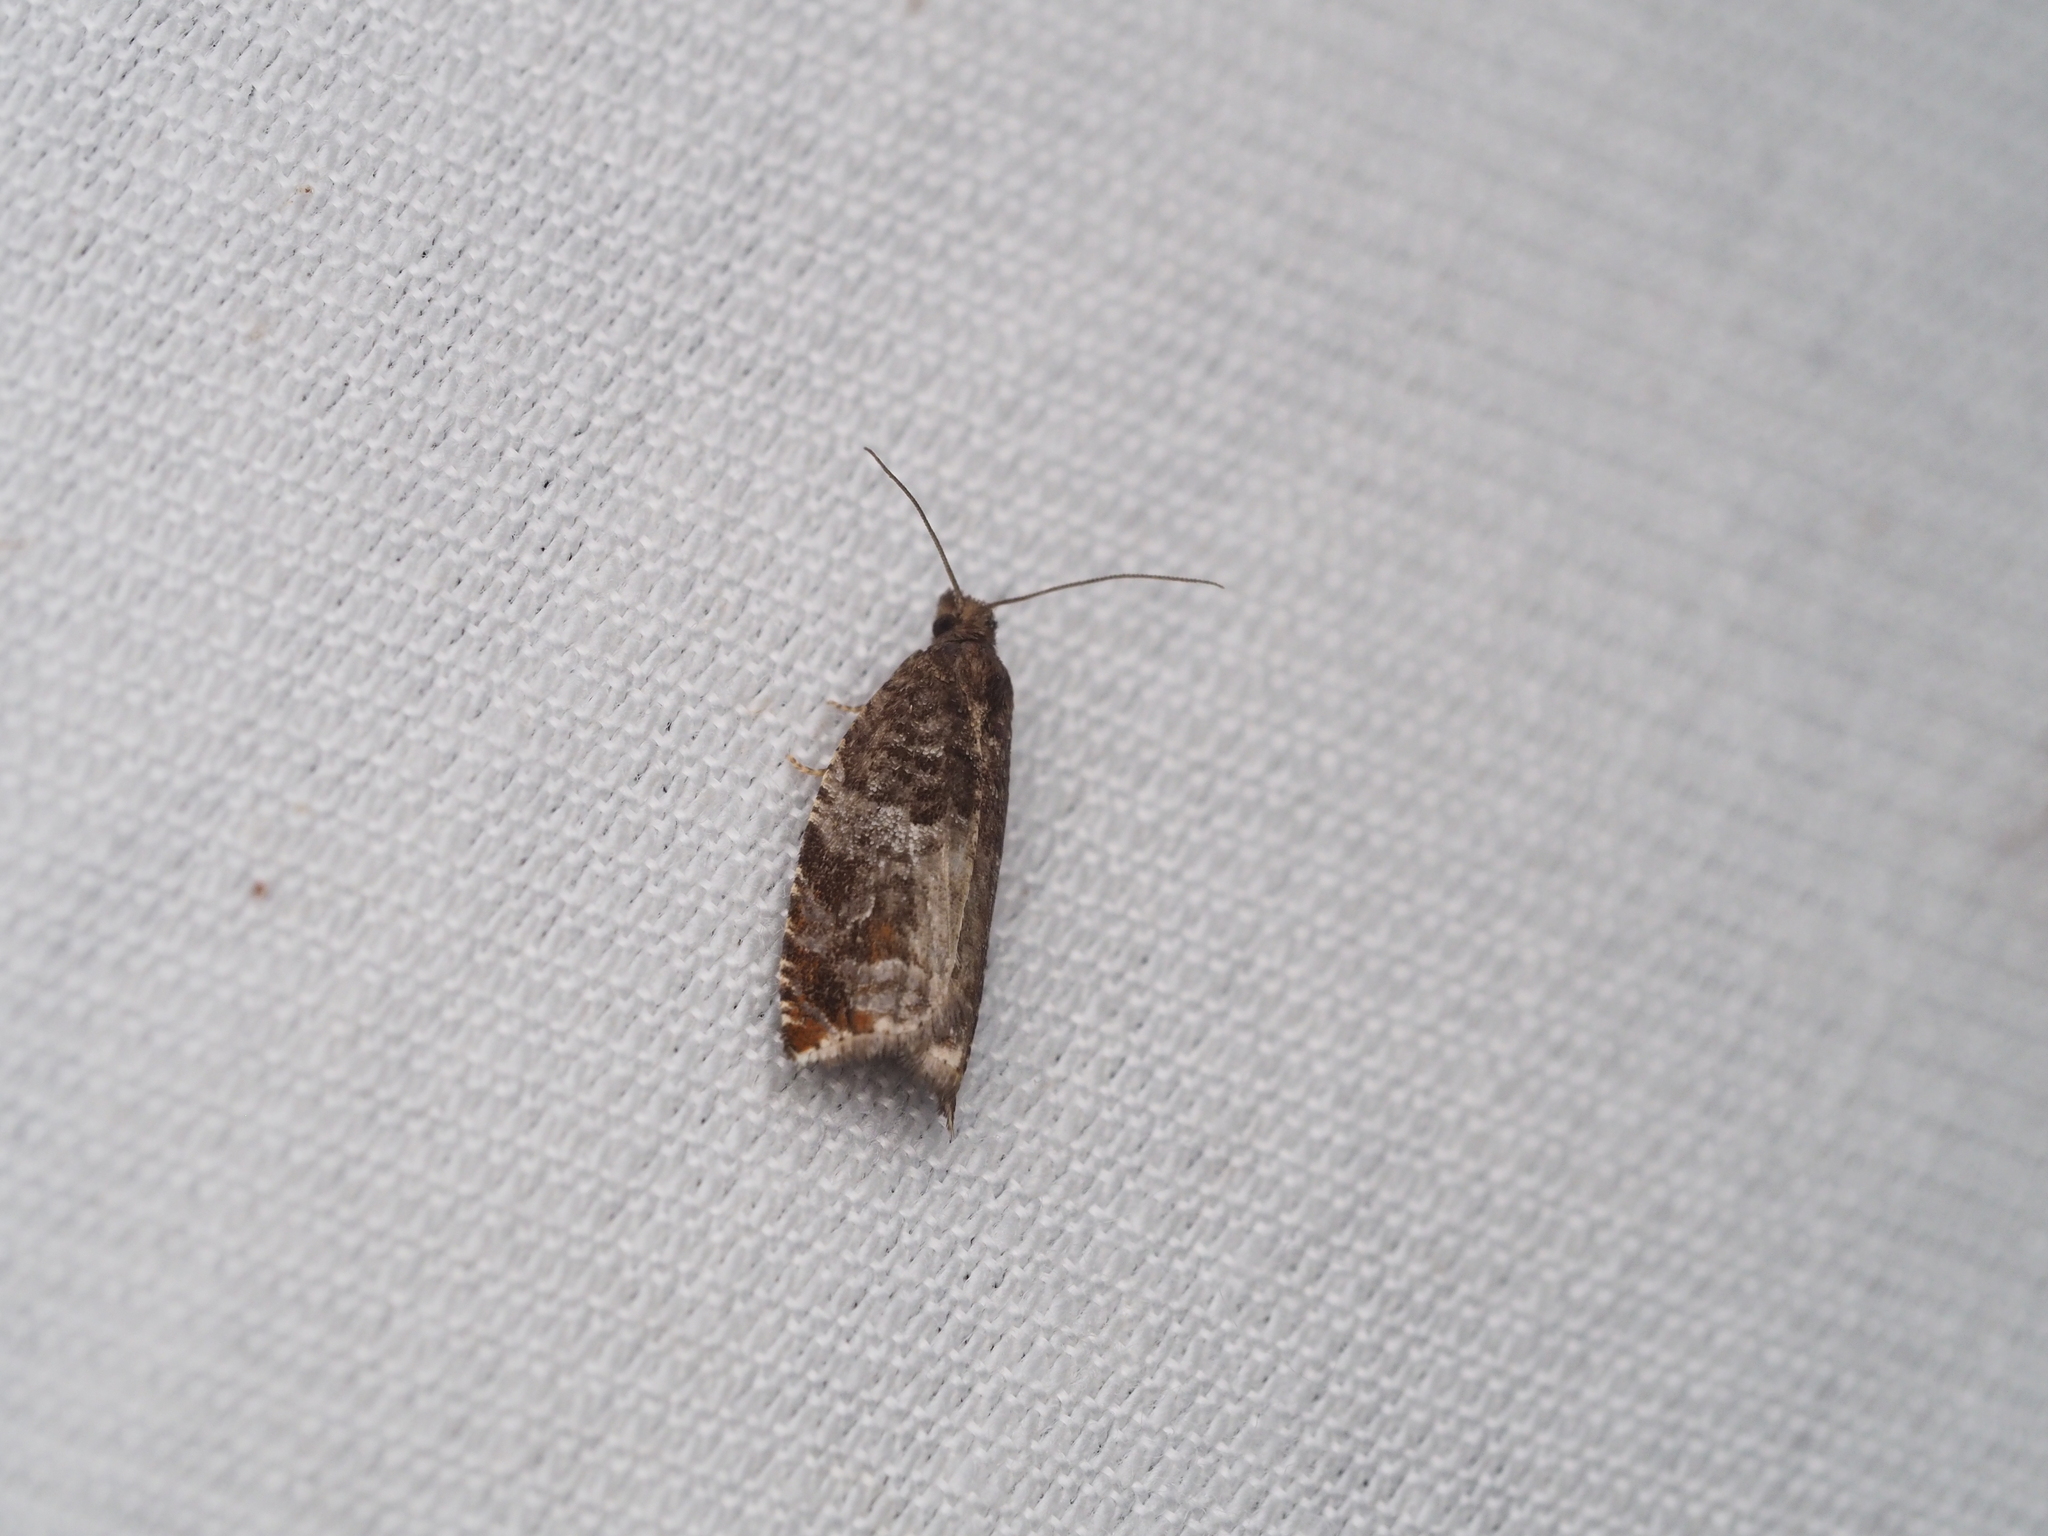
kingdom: Animalia
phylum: Arthropoda
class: Insecta
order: Lepidoptera
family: Tortricidae
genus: Ancylis
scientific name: Ancylis achatana
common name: Triangle-marked roller
